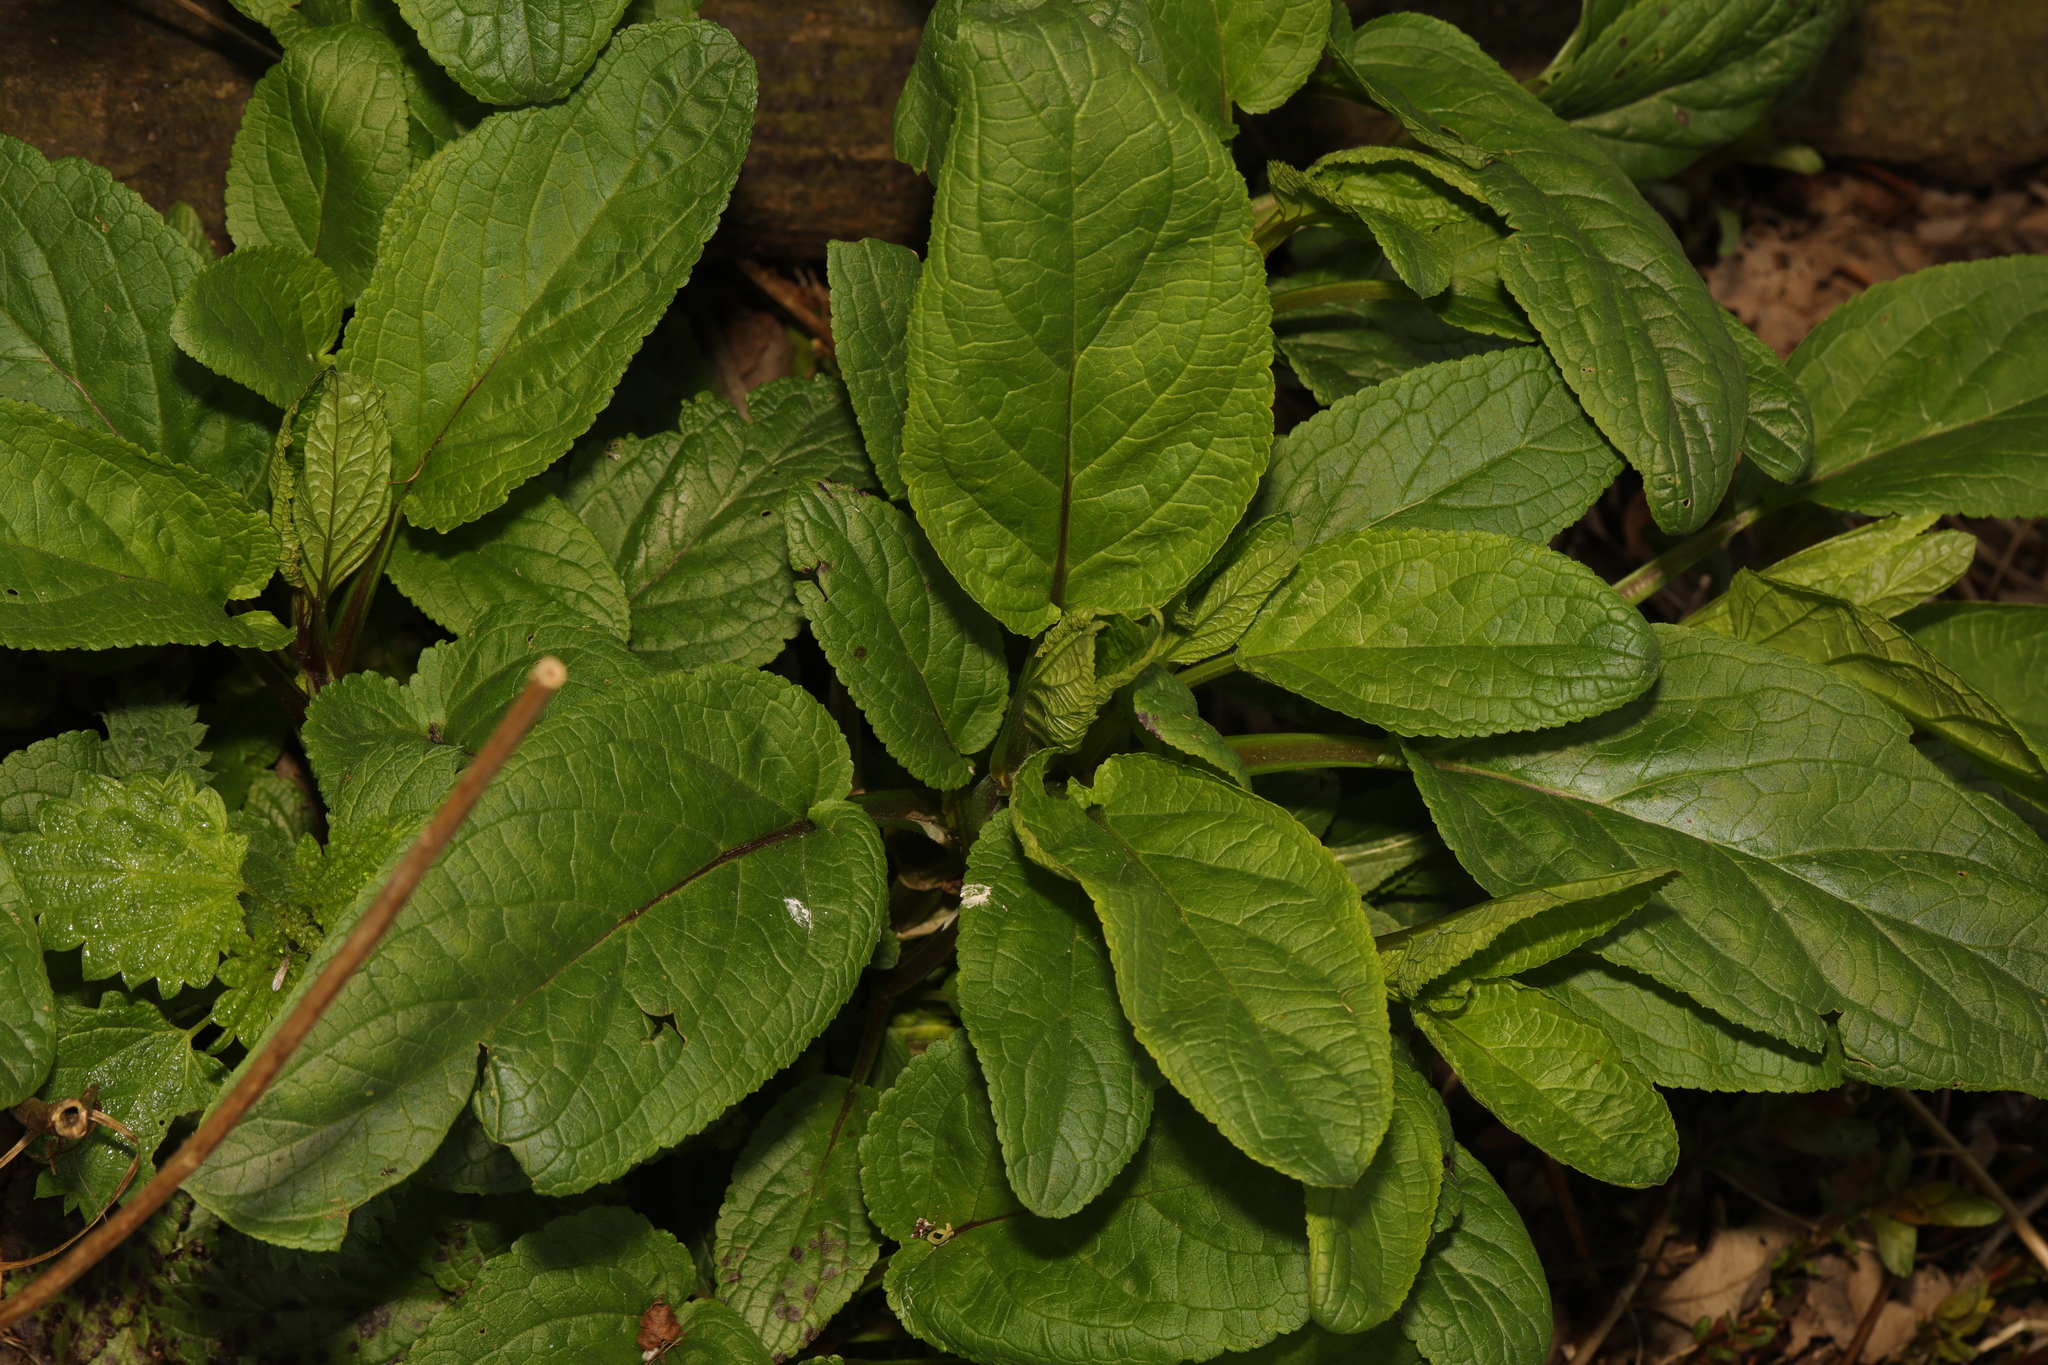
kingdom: Plantae
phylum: Tracheophyta
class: Magnoliopsida
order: Lamiales
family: Scrophulariaceae
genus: Scrophularia
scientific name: Scrophularia auriculata
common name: Water betony
